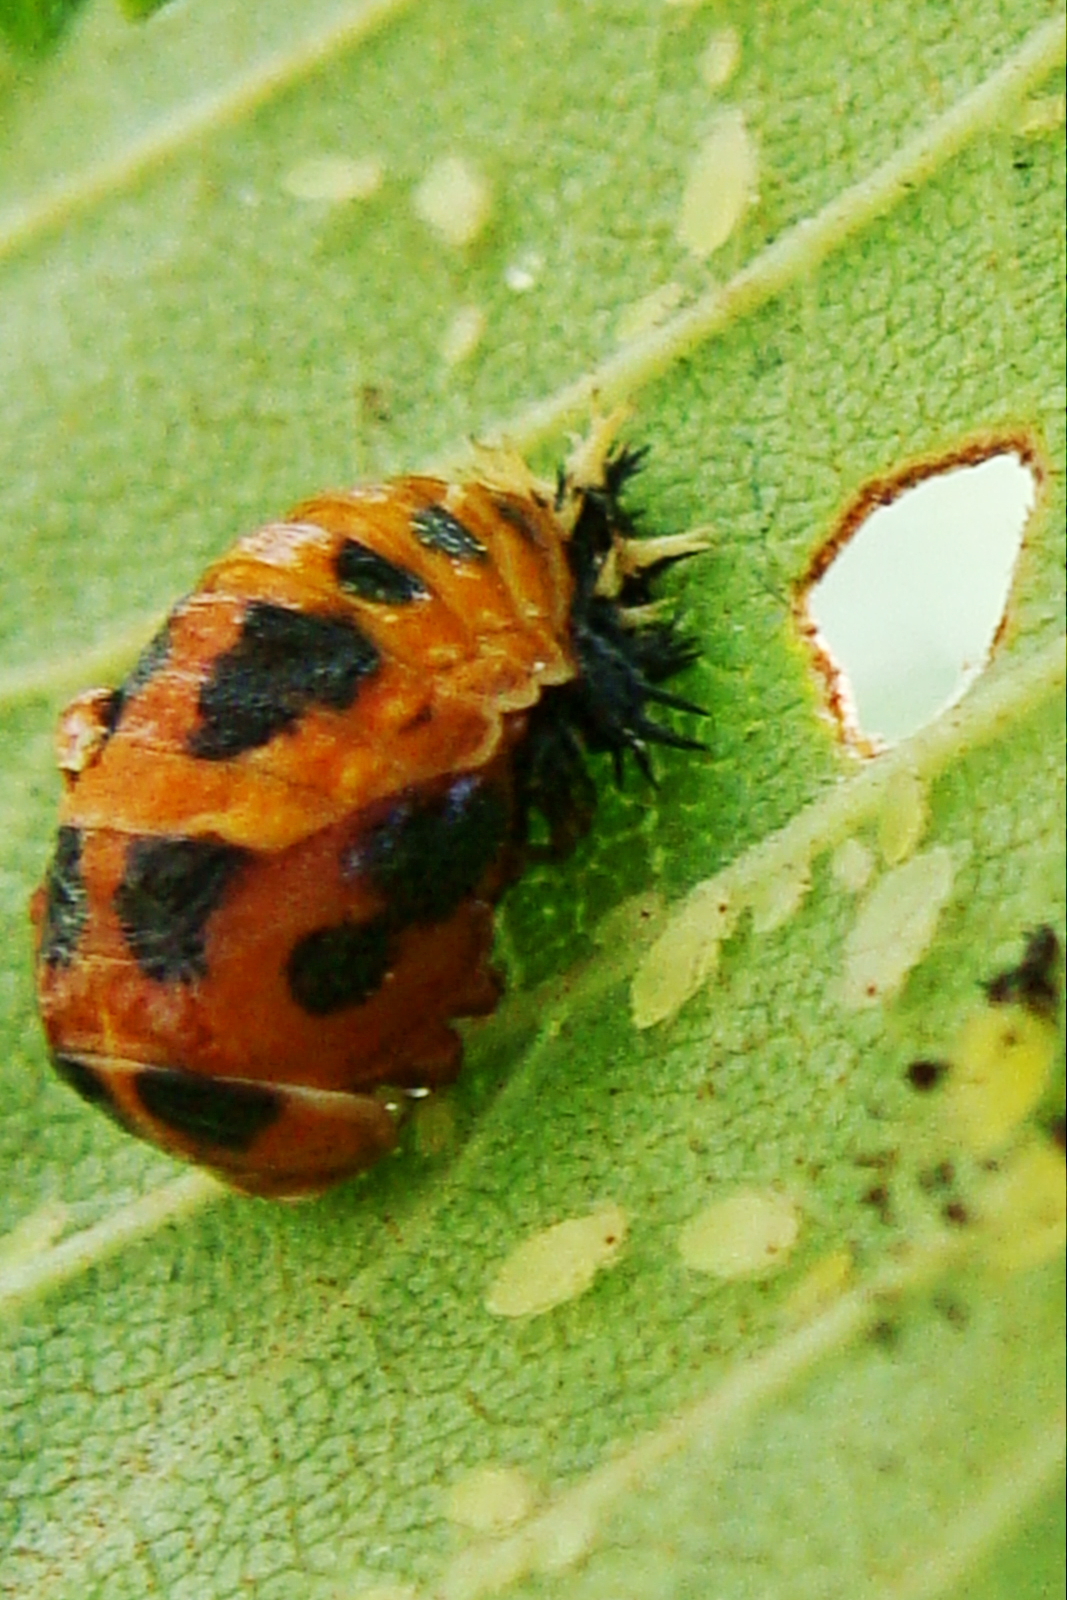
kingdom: Animalia
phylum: Arthropoda
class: Insecta
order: Coleoptera
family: Coccinellidae
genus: Harmonia
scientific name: Harmonia axyridis
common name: Harlequin ladybird
